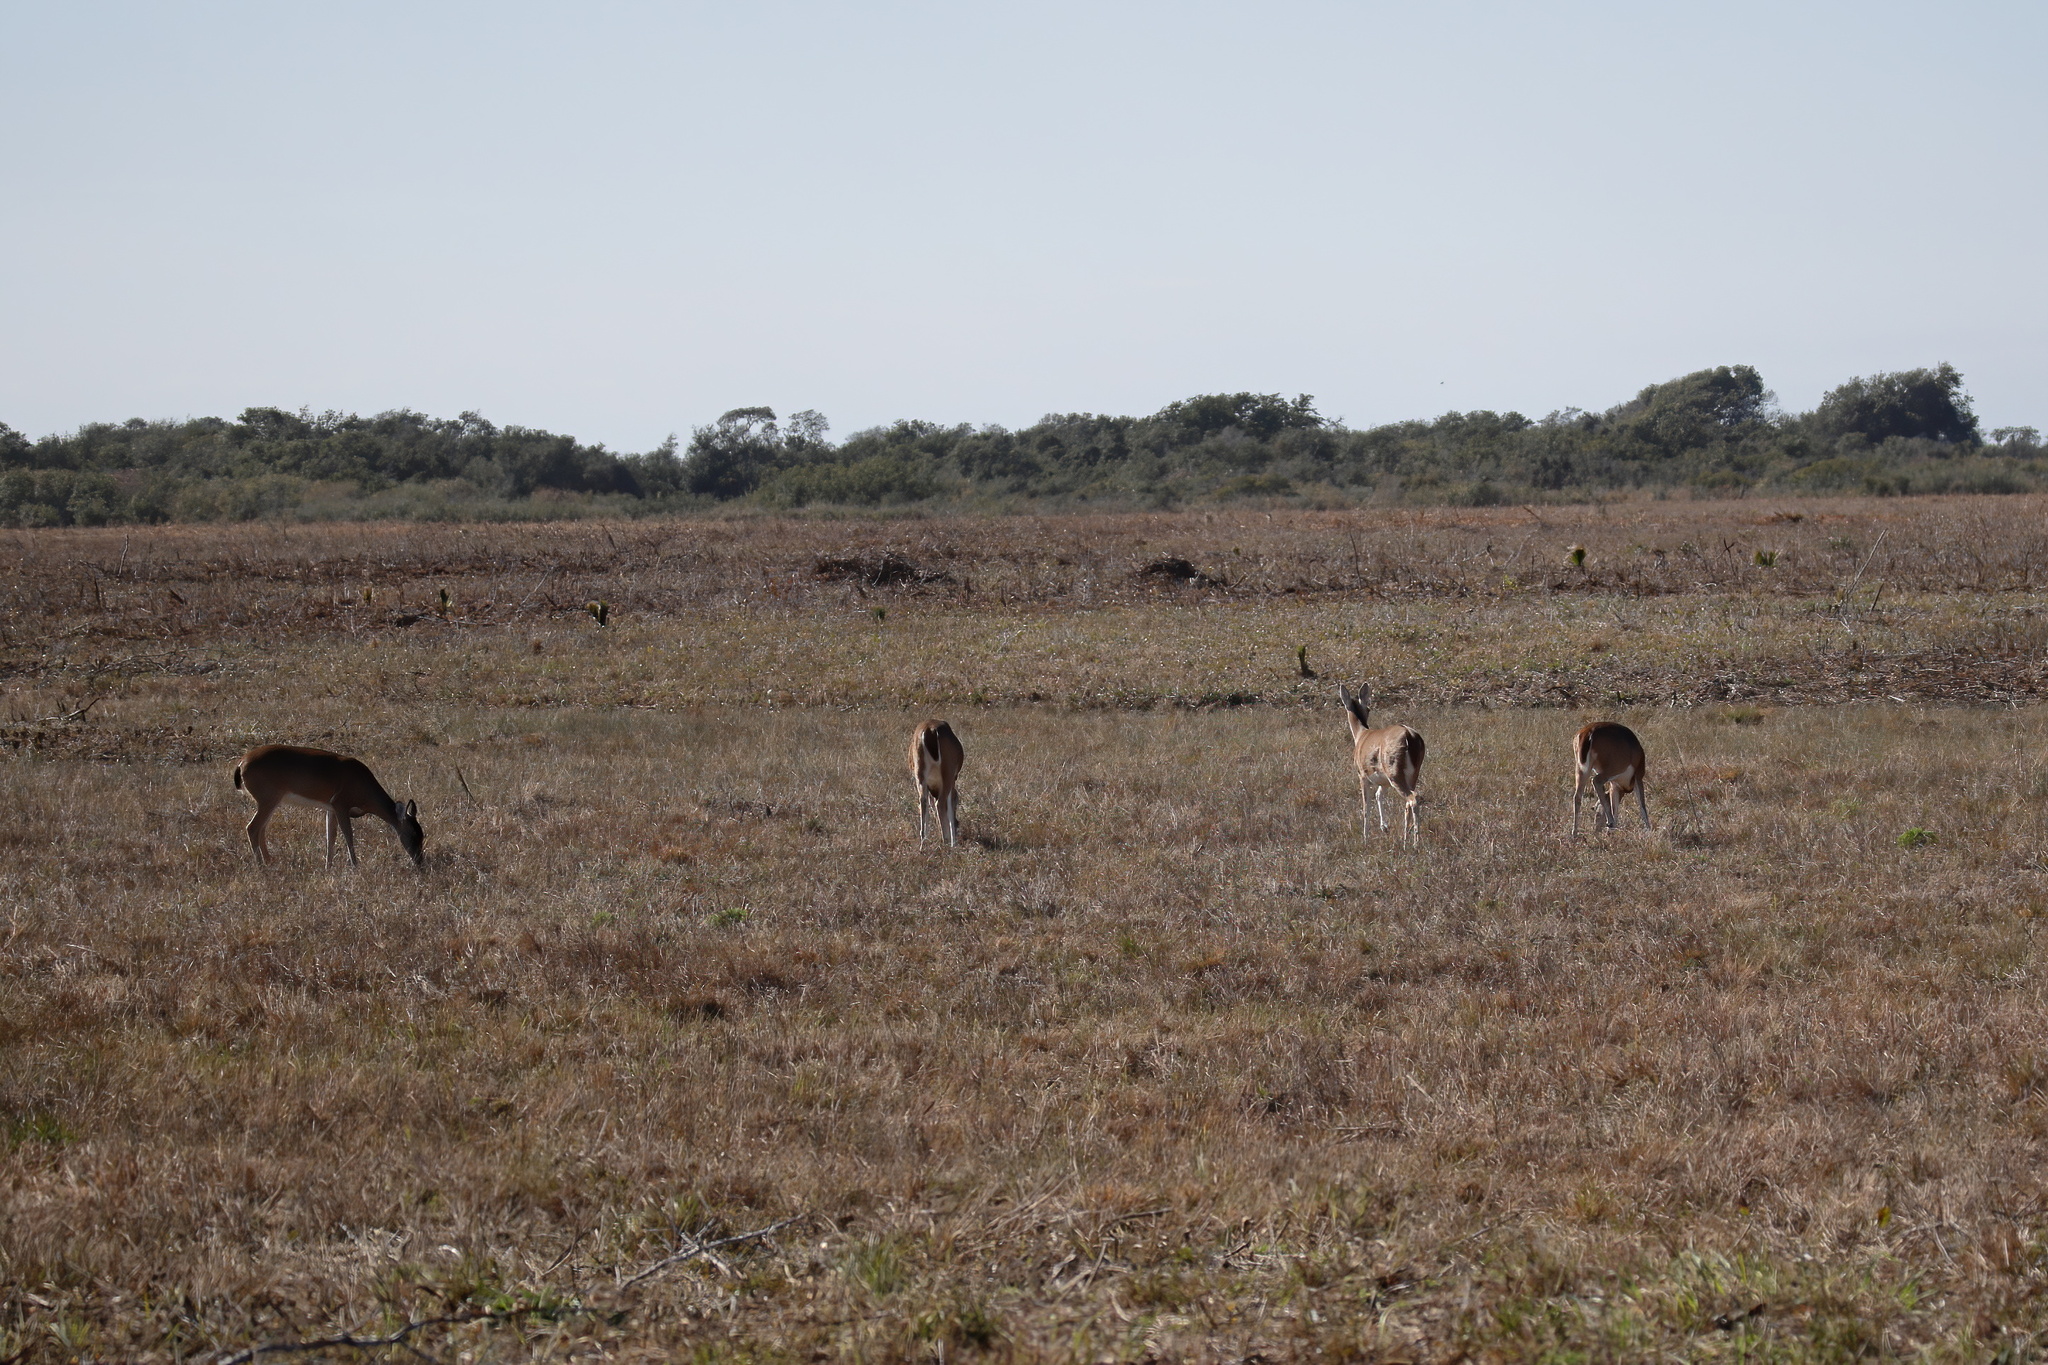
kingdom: Animalia
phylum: Chordata
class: Mammalia
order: Artiodactyla
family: Cervidae
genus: Odocoileus
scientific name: Odocoileus virginianus
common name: White-tailed deer
